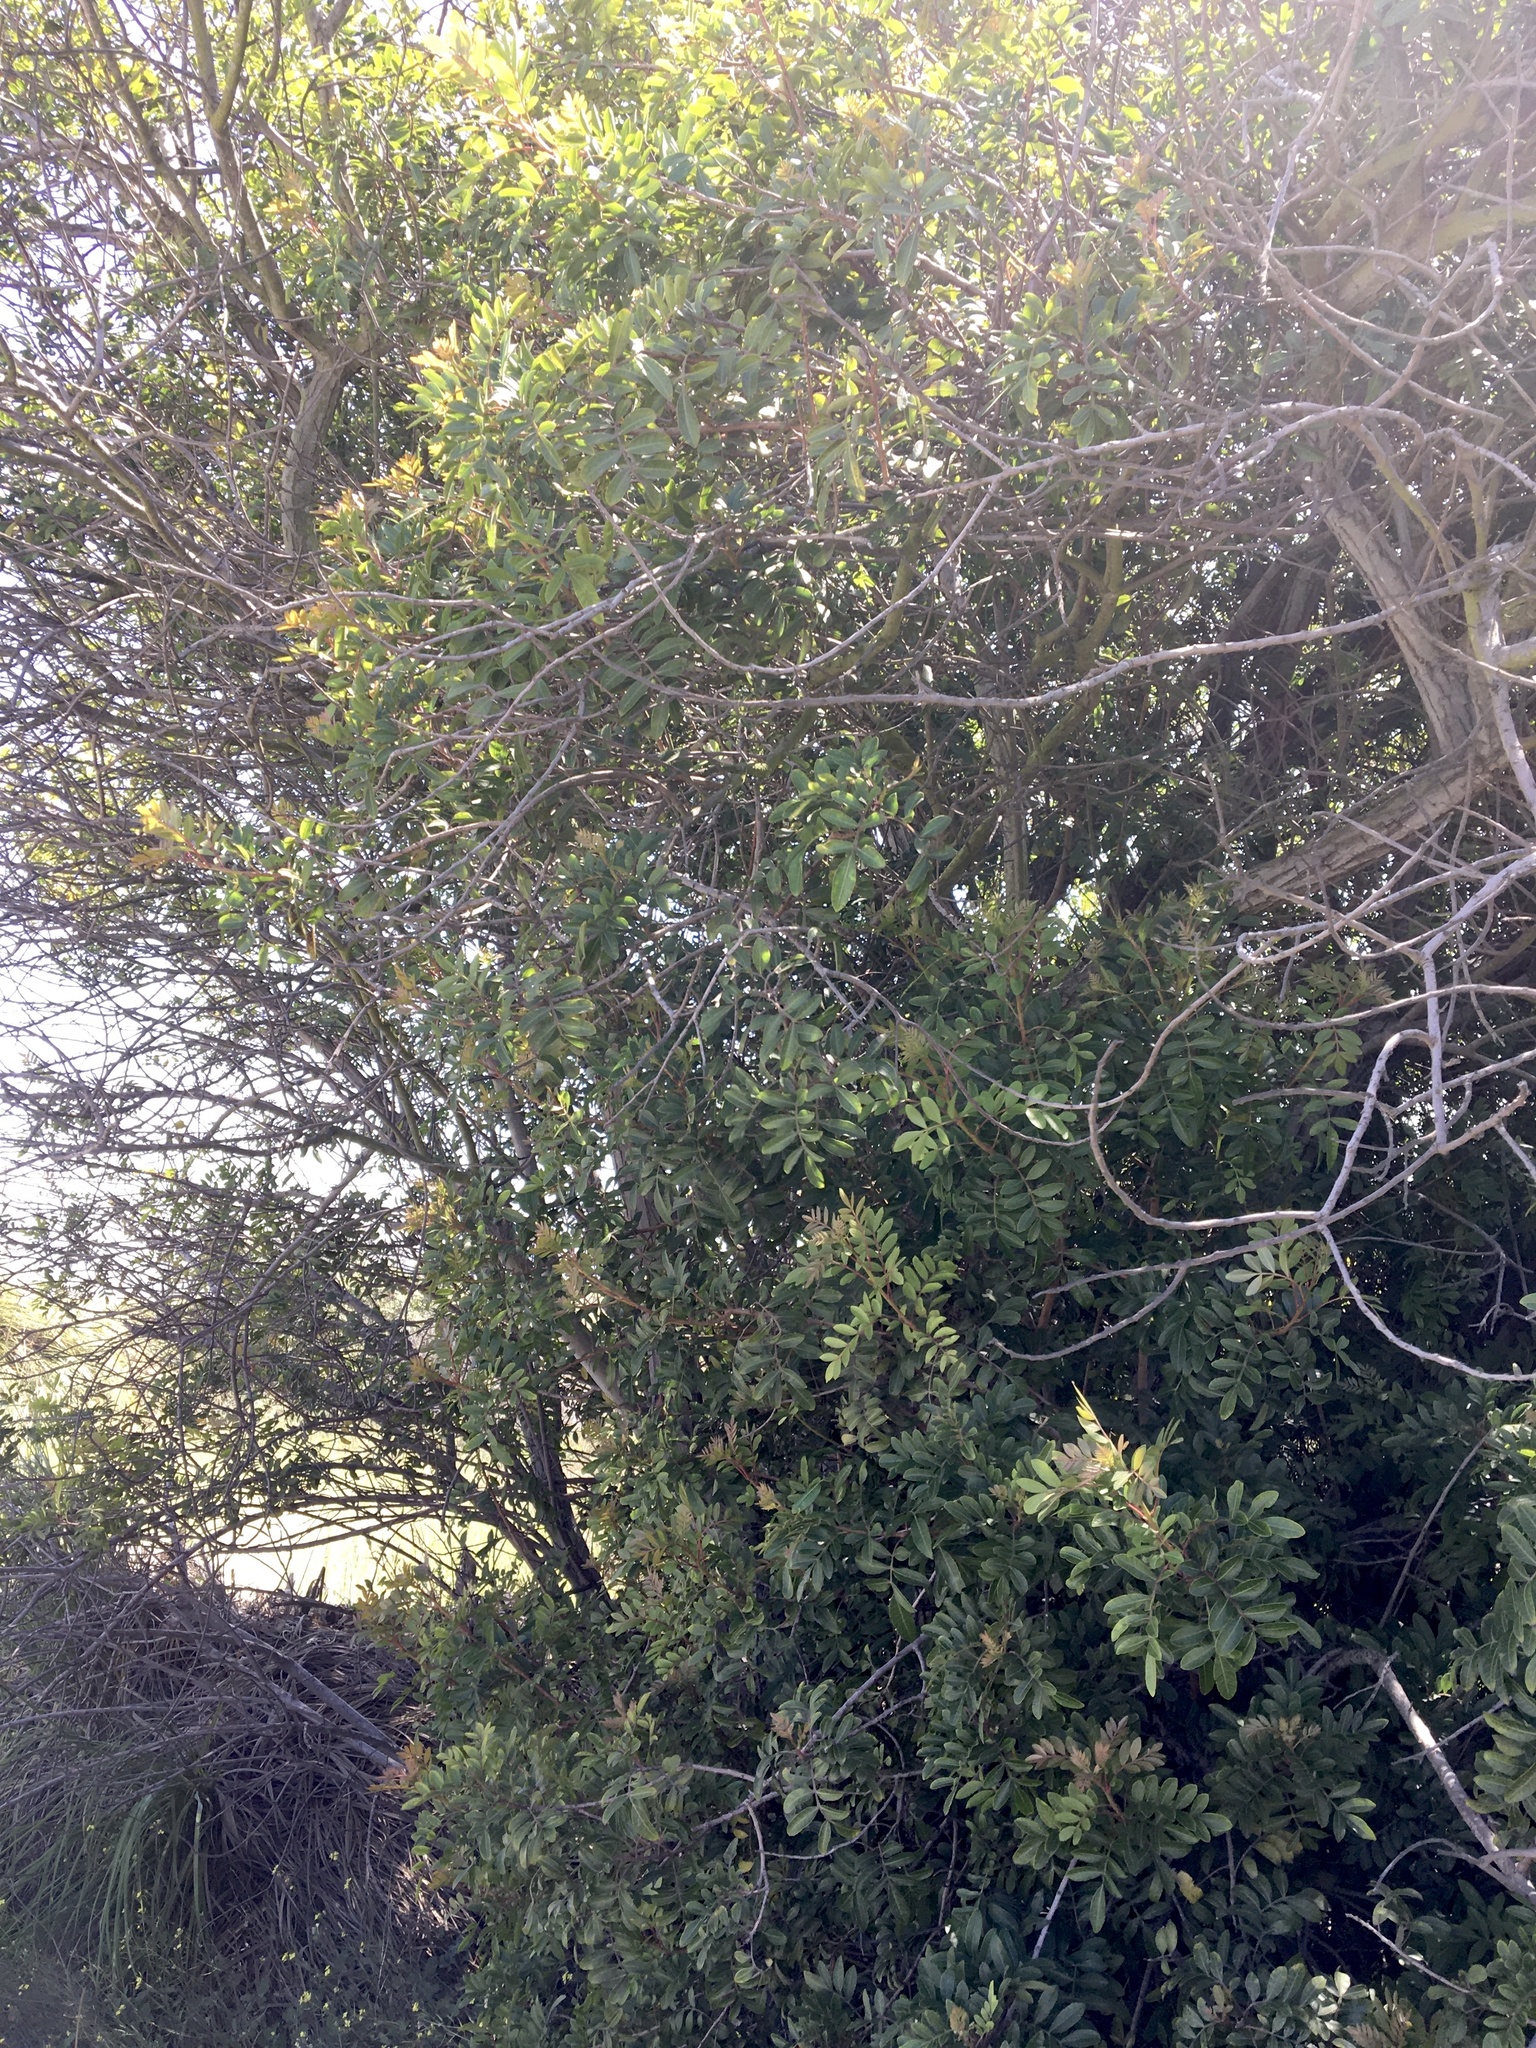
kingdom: Plantae
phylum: Tracheophyta
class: Magnoliopsida
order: Sapindales
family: Anacardiaceae
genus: Schinus
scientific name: Schinus terebinthifolia
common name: Brazilian peppertree
